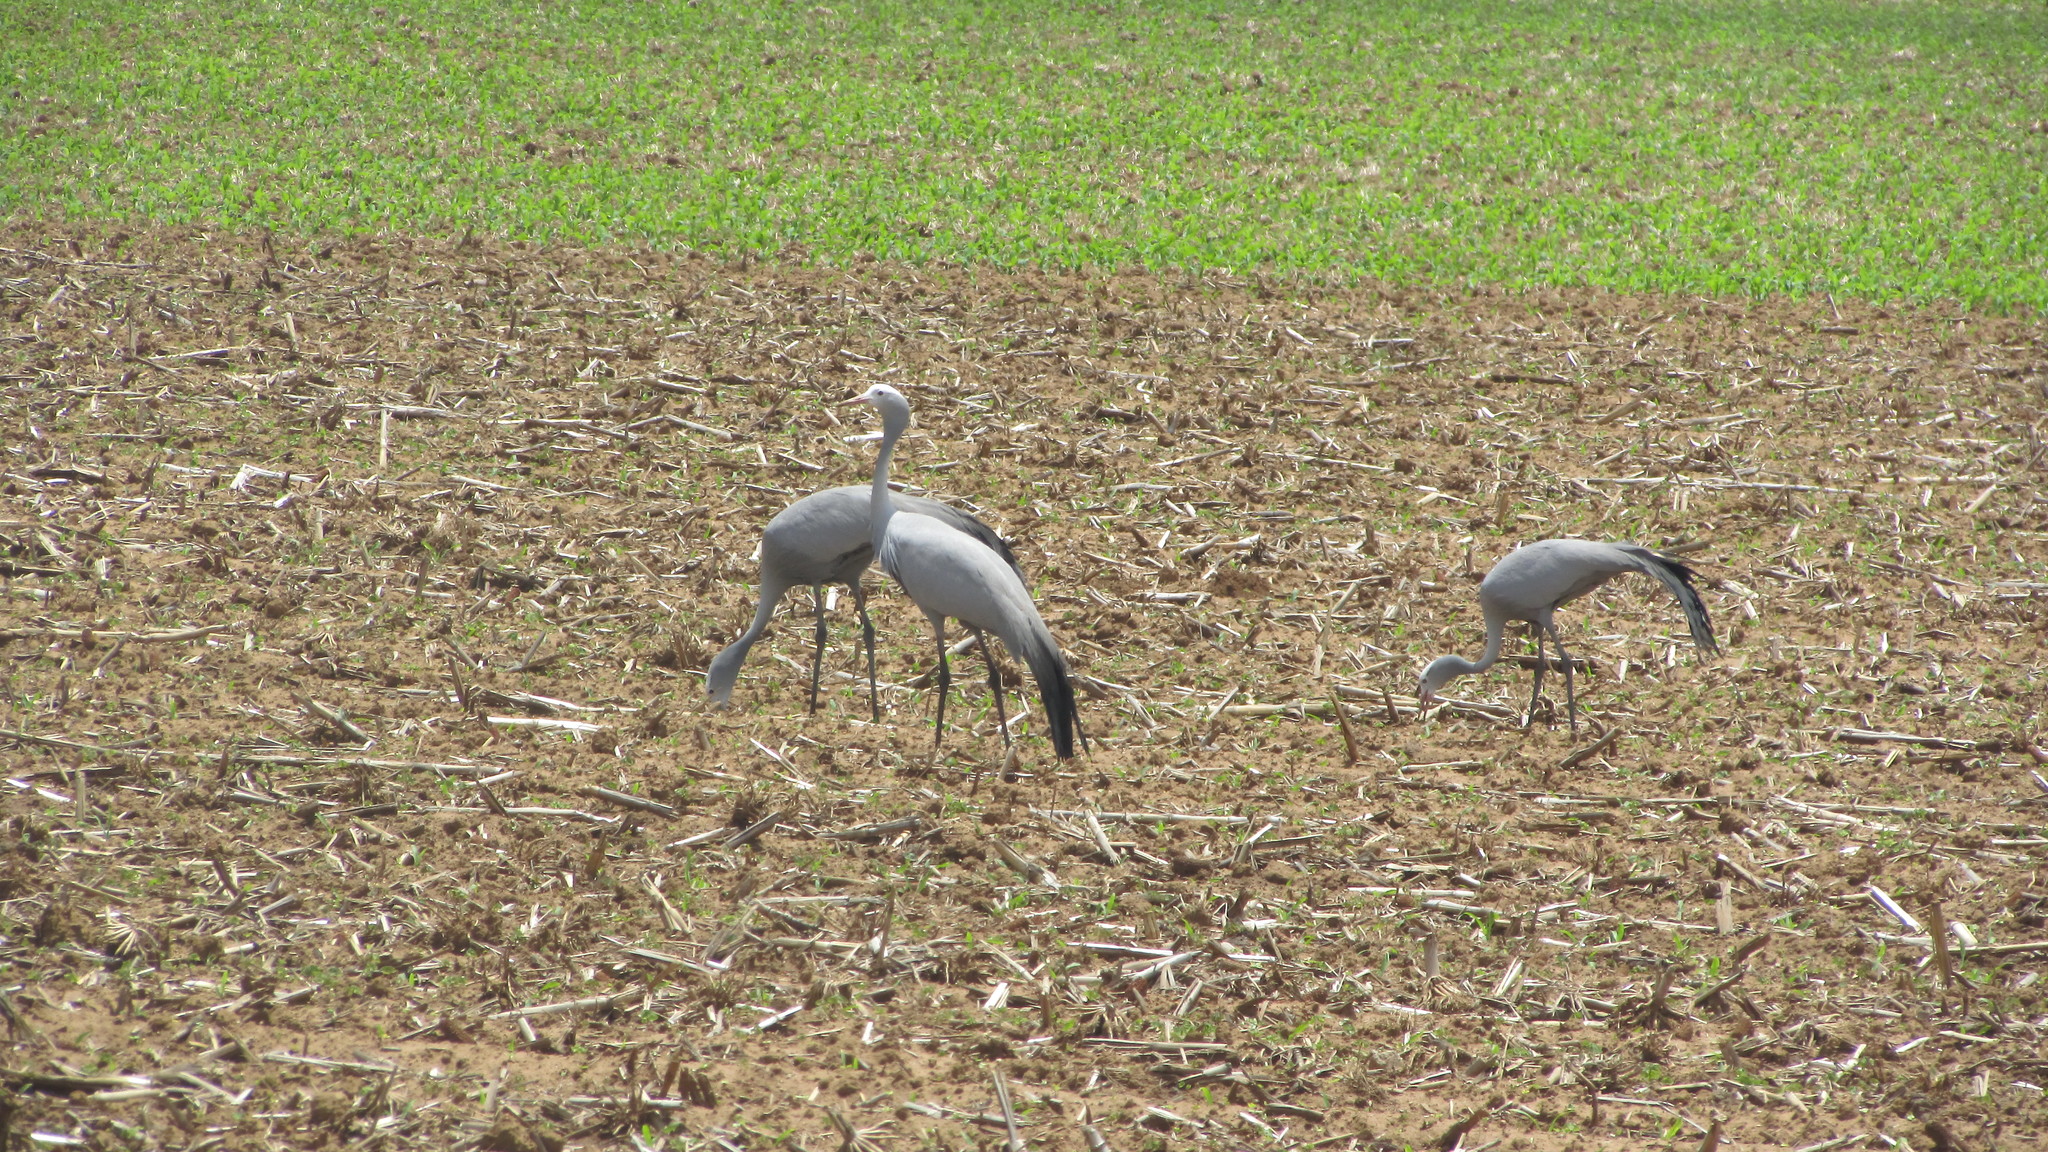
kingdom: Animalia
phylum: Chordata
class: Aves
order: Gruiformes
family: Gruidae
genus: Anthropoides
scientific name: Anthropoides paradiseus
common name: Blue crane
